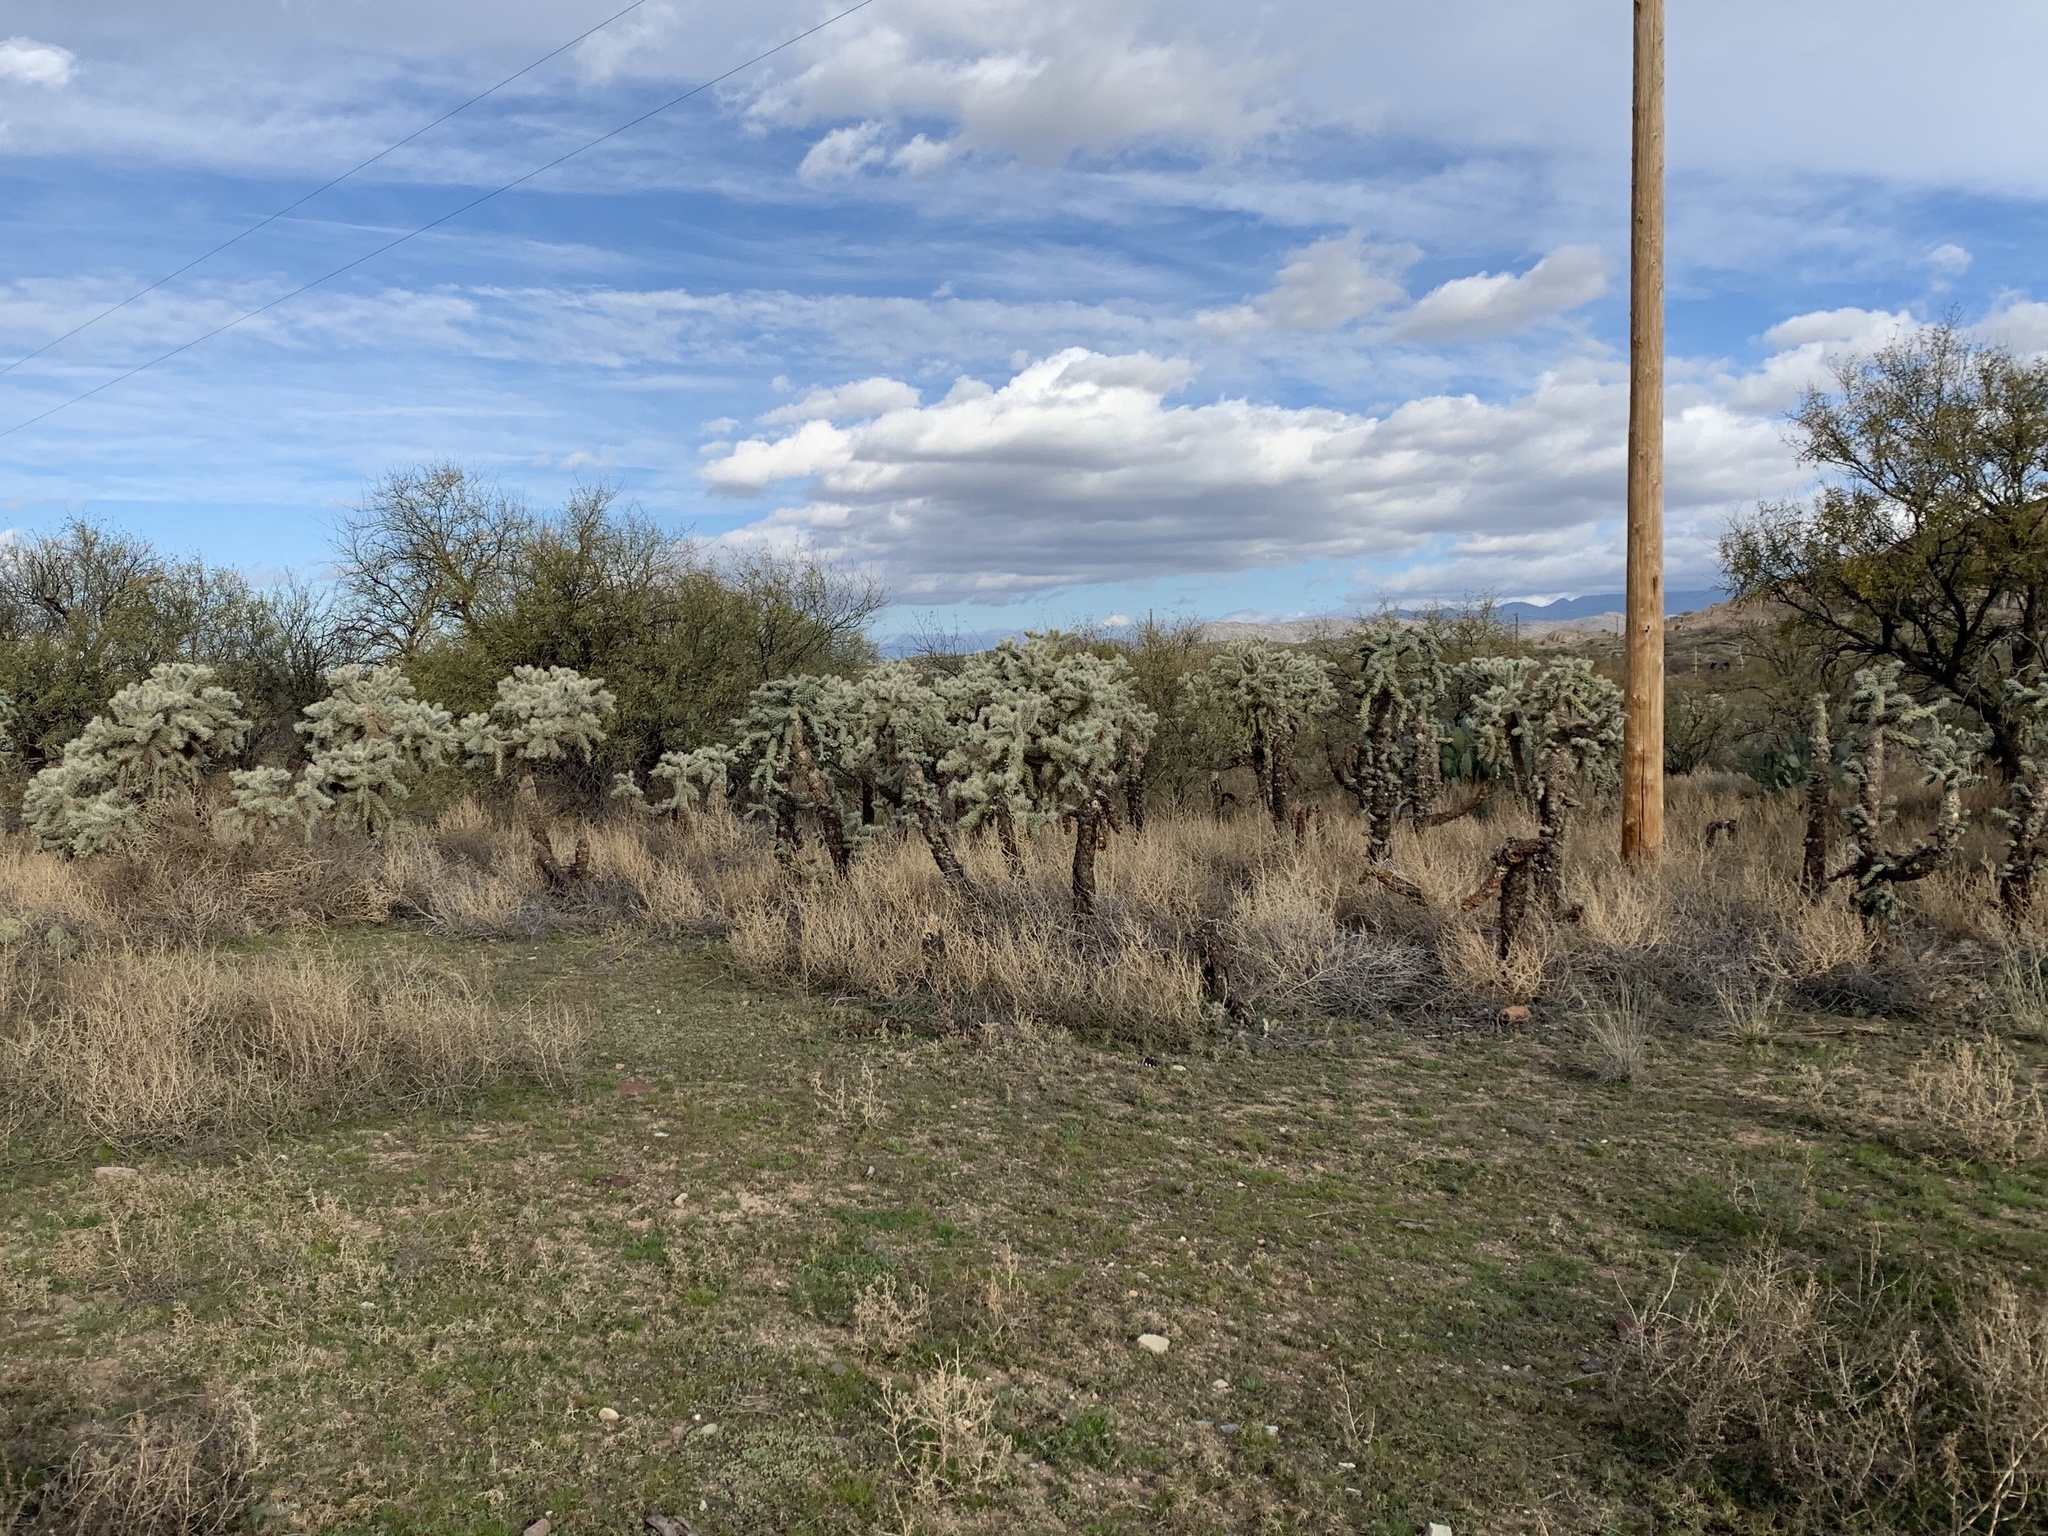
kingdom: Plantae
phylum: Tracheophyta
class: Magnoliopsida
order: Caryophyllales
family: Cactaceae
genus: Cylindropuntia
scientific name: Cylindropuntia fulgida
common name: Jumping cholla
